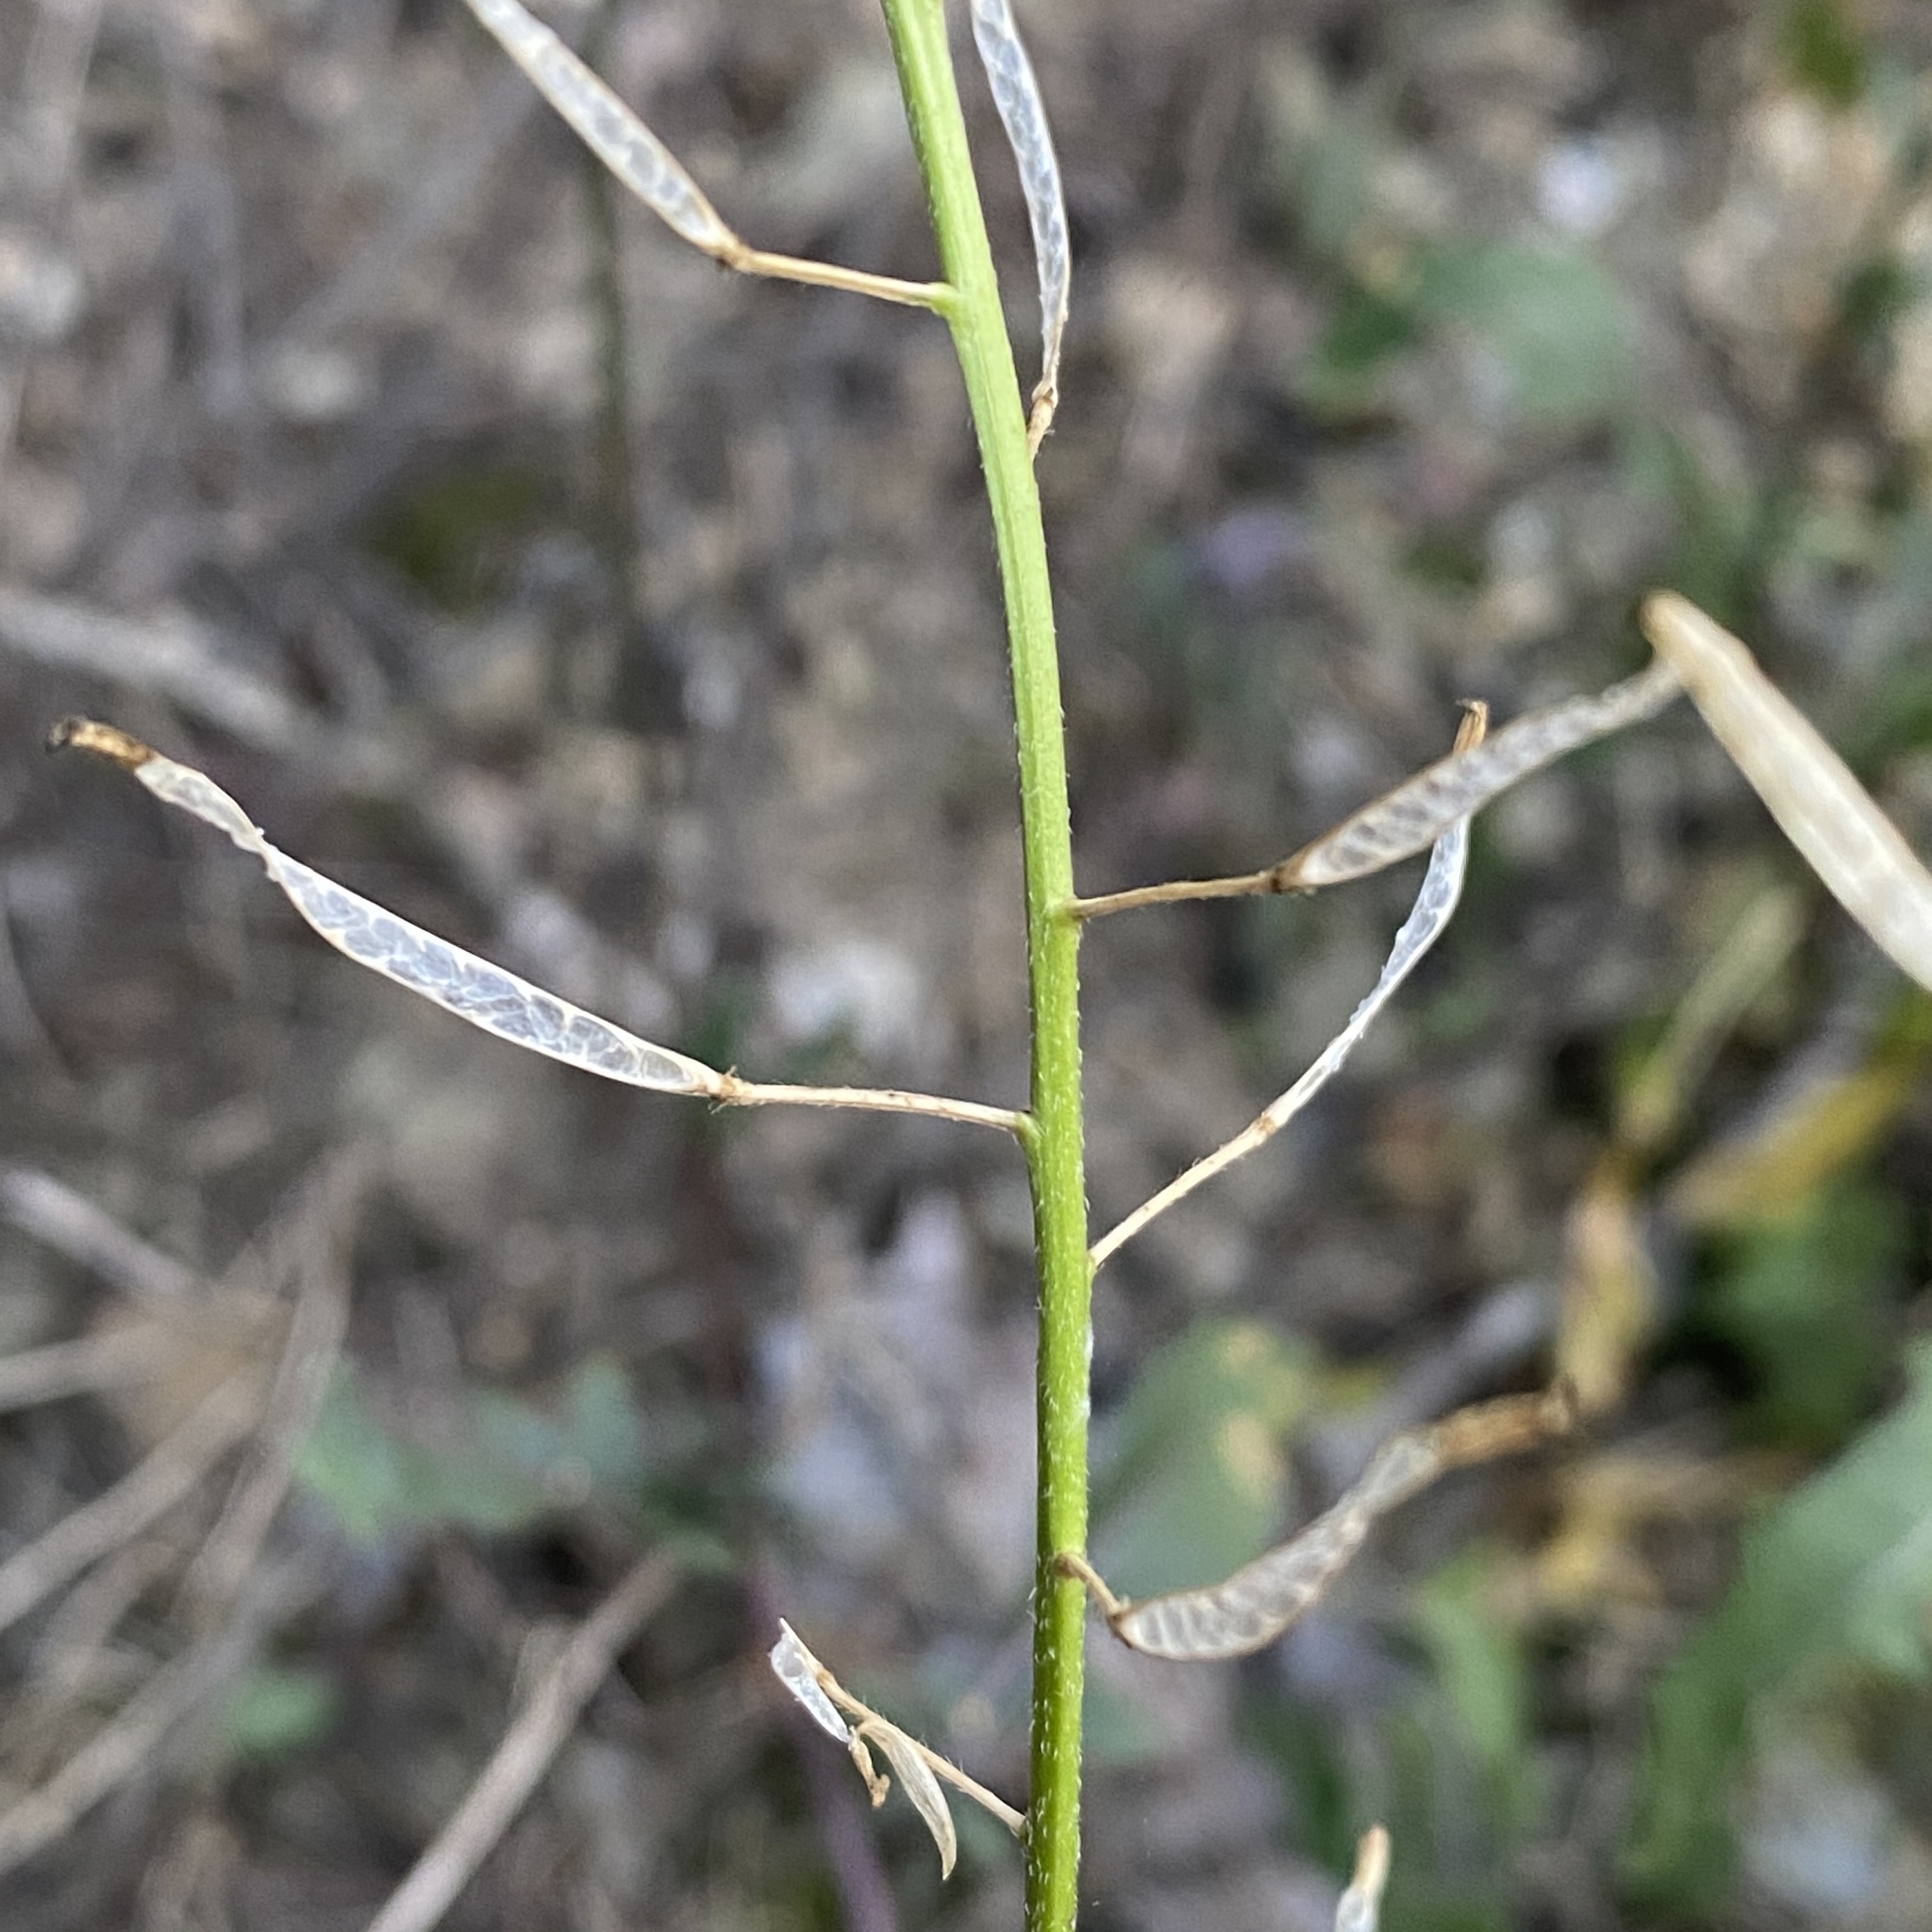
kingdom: Plantae
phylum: Tracheophyta
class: Magnoliopsida
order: Brassicales
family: Brassicaceae
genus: Diplotaxis
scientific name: Diplotaxis erucoides
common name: White rocket
